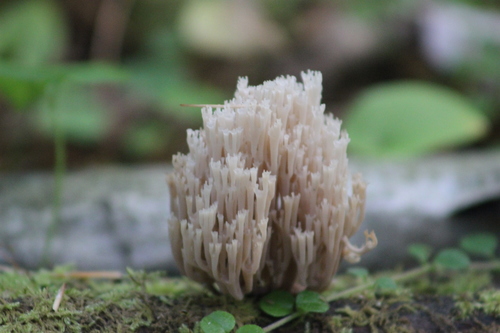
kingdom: Fungi
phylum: Basidiomycota
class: Agaricomycetes
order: Russulales
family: Auriscalpiaceae
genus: Artomyces
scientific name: Artomyces pyxidatus
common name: Crown-tipped coral fungus
